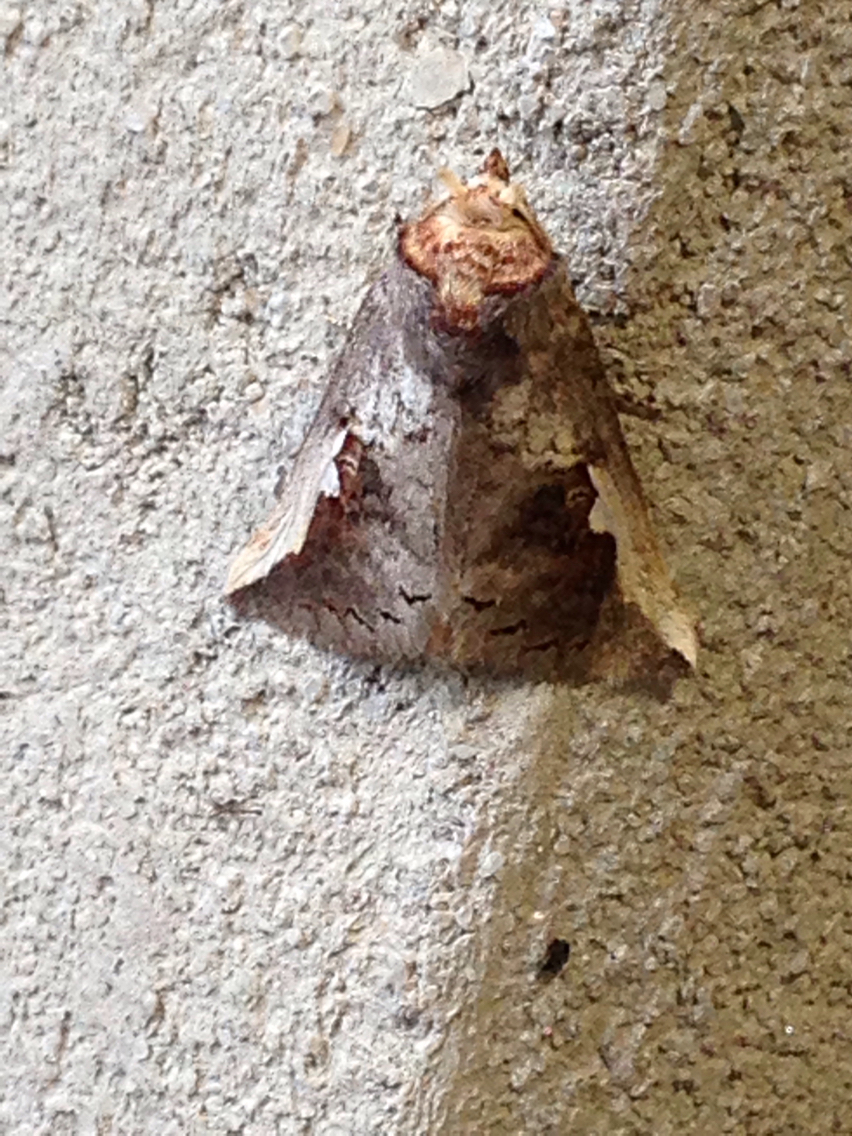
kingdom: Animalia
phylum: Arthropoda
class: Insecta
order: Lepidoptera
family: Notodontidae
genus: Symmerista
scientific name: Symmerista
